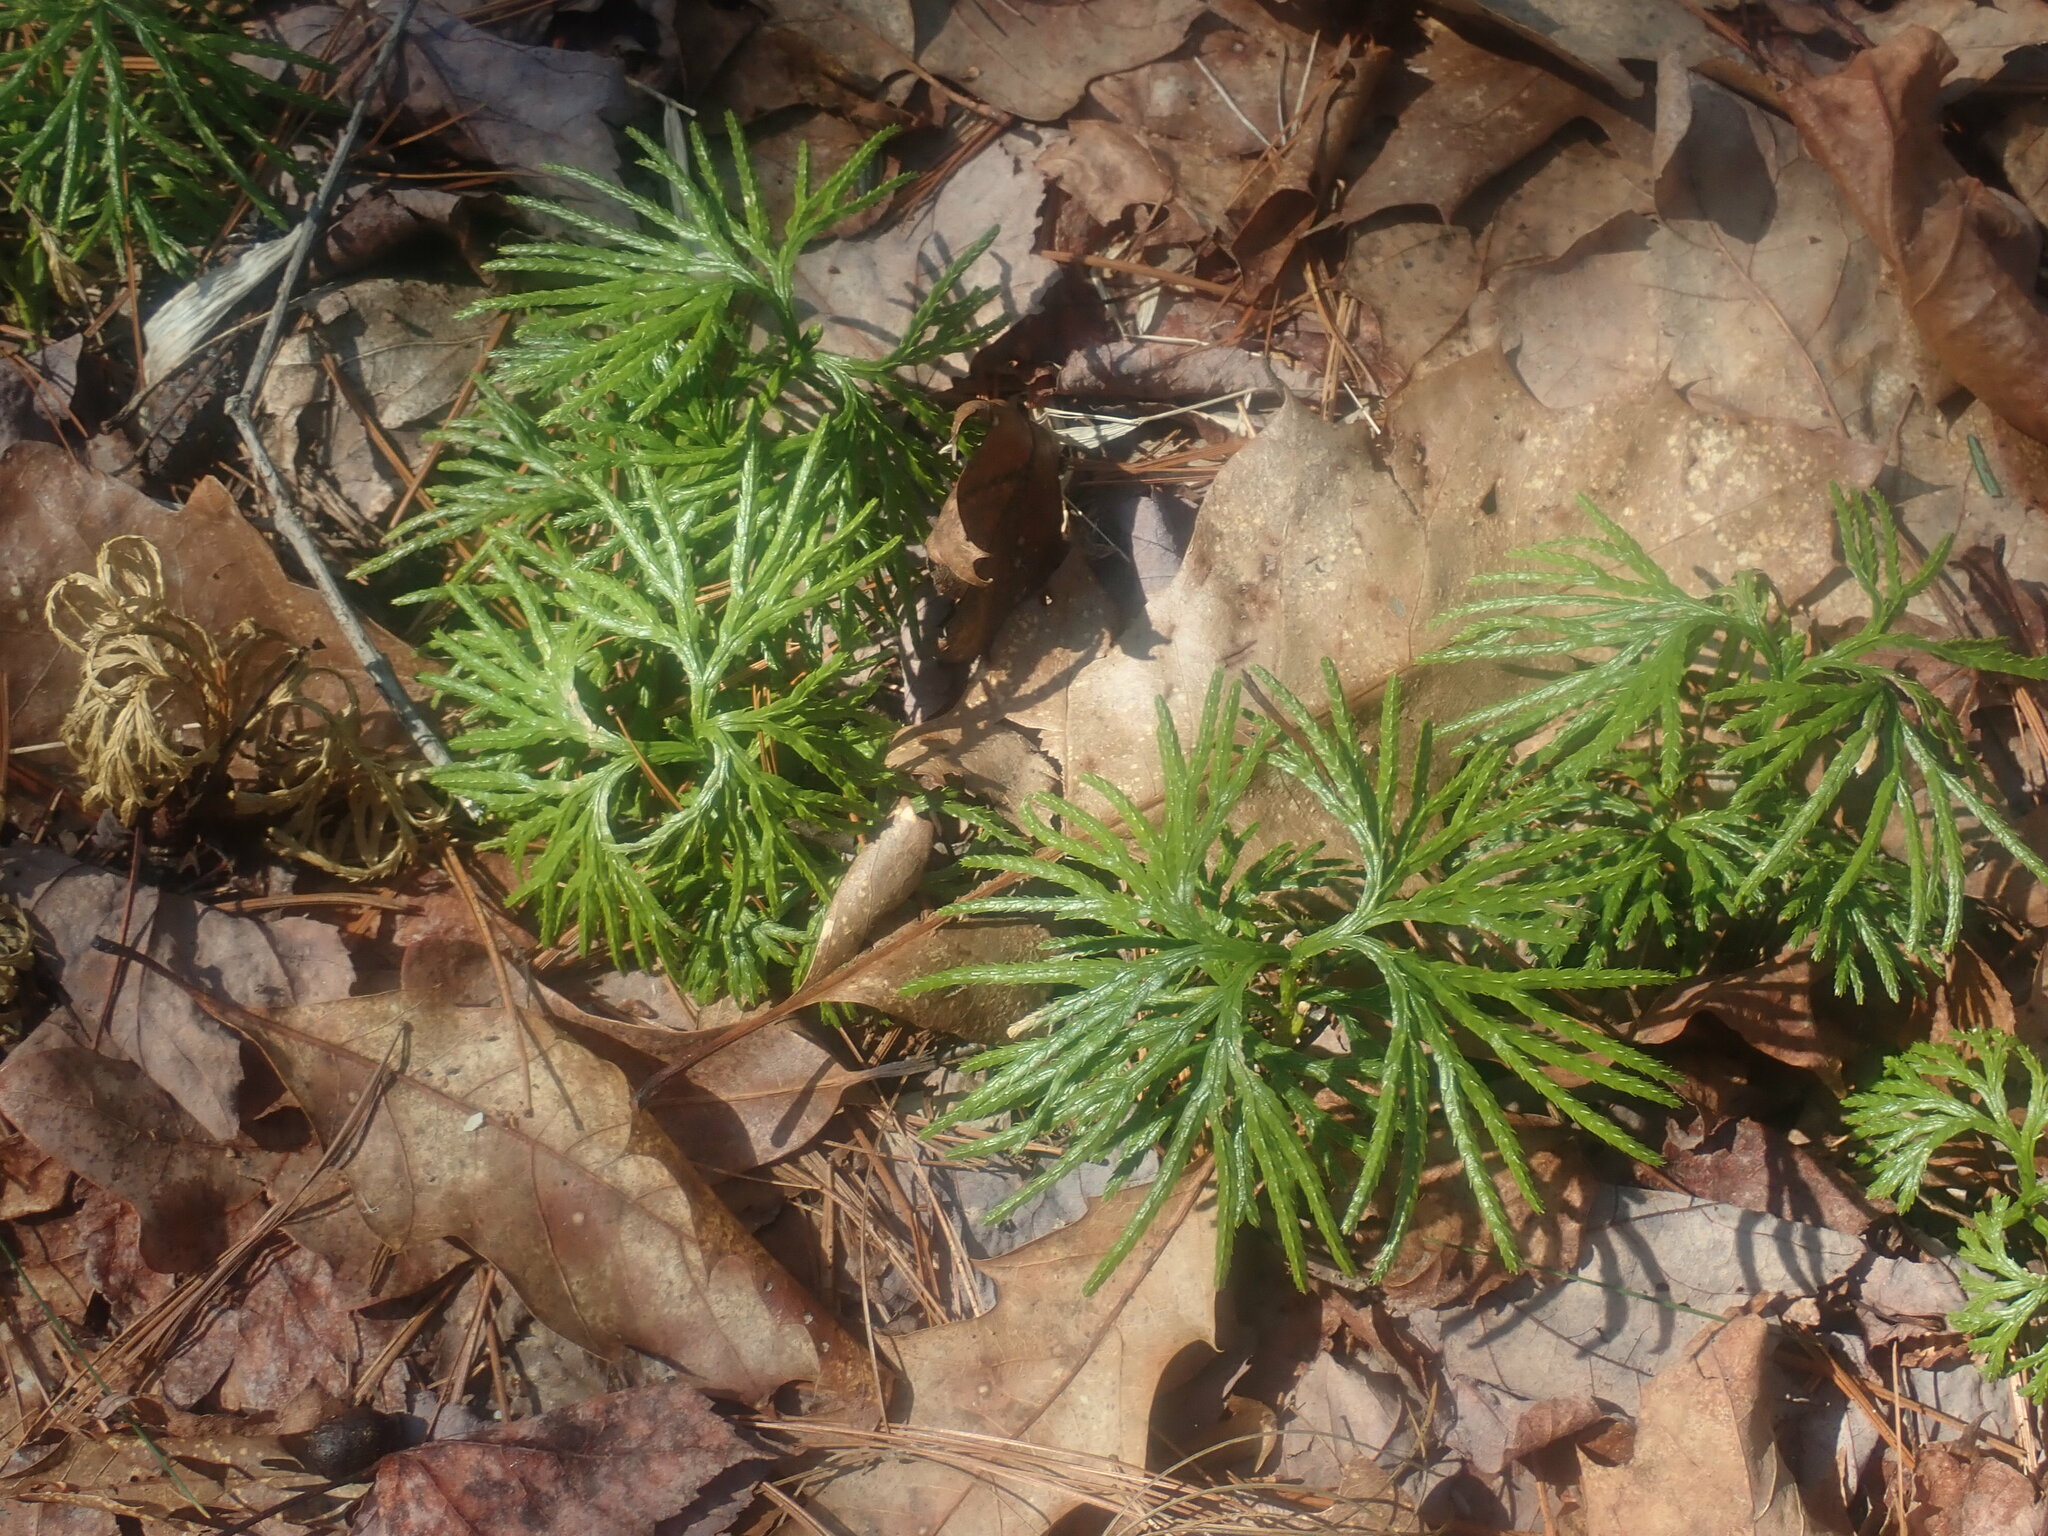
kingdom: Plantae
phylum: Tracheophyta
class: Lycopodiopsida
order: Lycopodiales
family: Lycopodiaceae
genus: Diphasiastrum
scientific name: Diphasiastrum digitatum
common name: Southern running-pine
